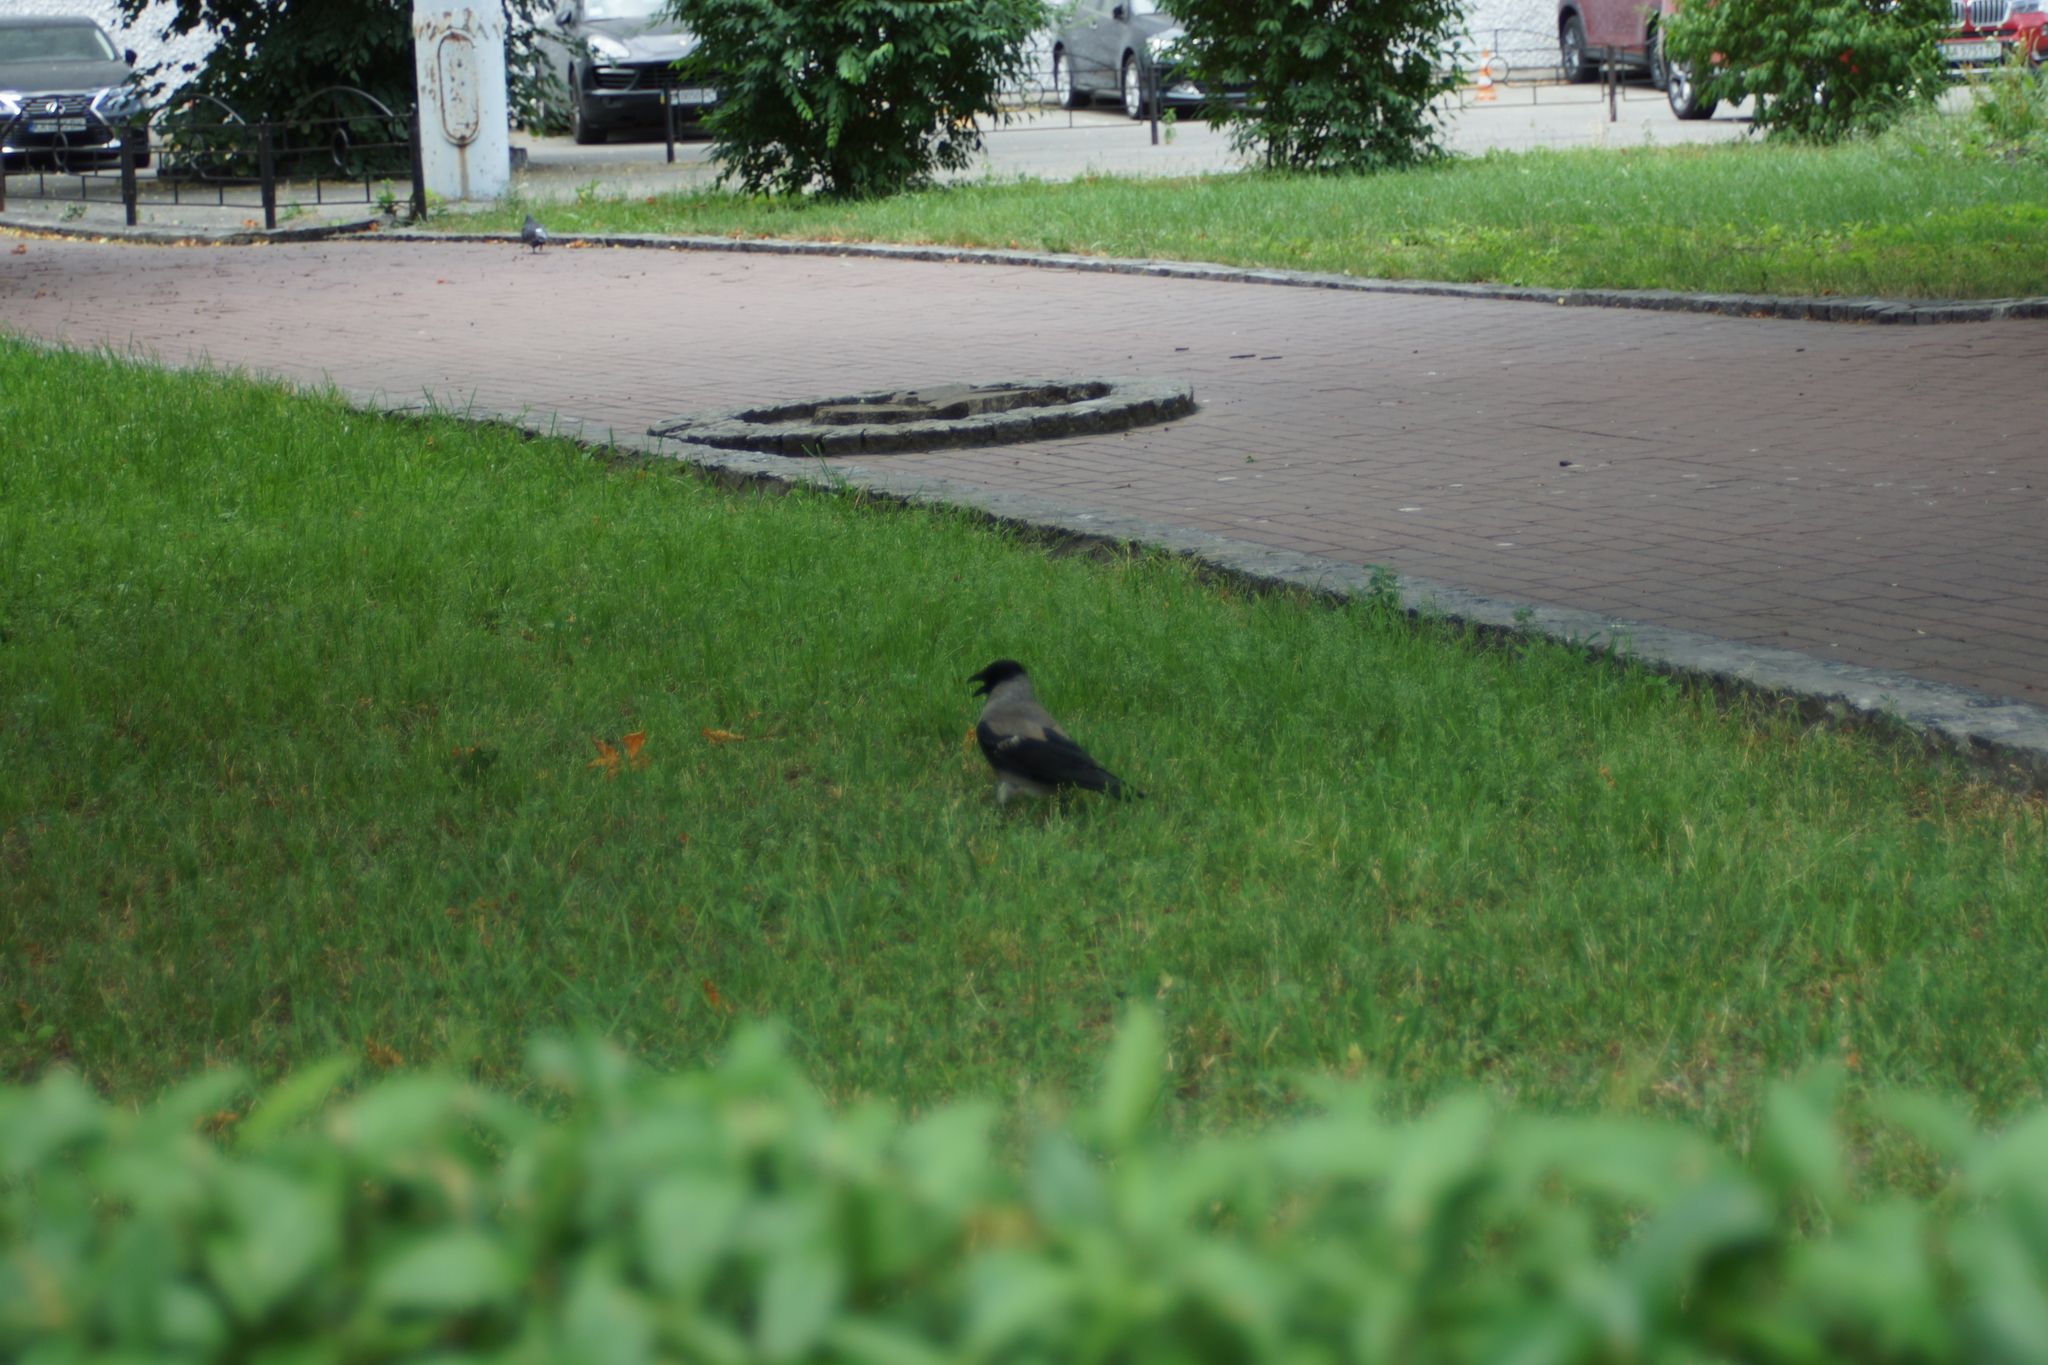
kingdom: Animalia
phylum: Chordata
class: Aves
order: Passeriformes
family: Corvidae
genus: Corvus
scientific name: Corvus cornix
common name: Hooded crow
